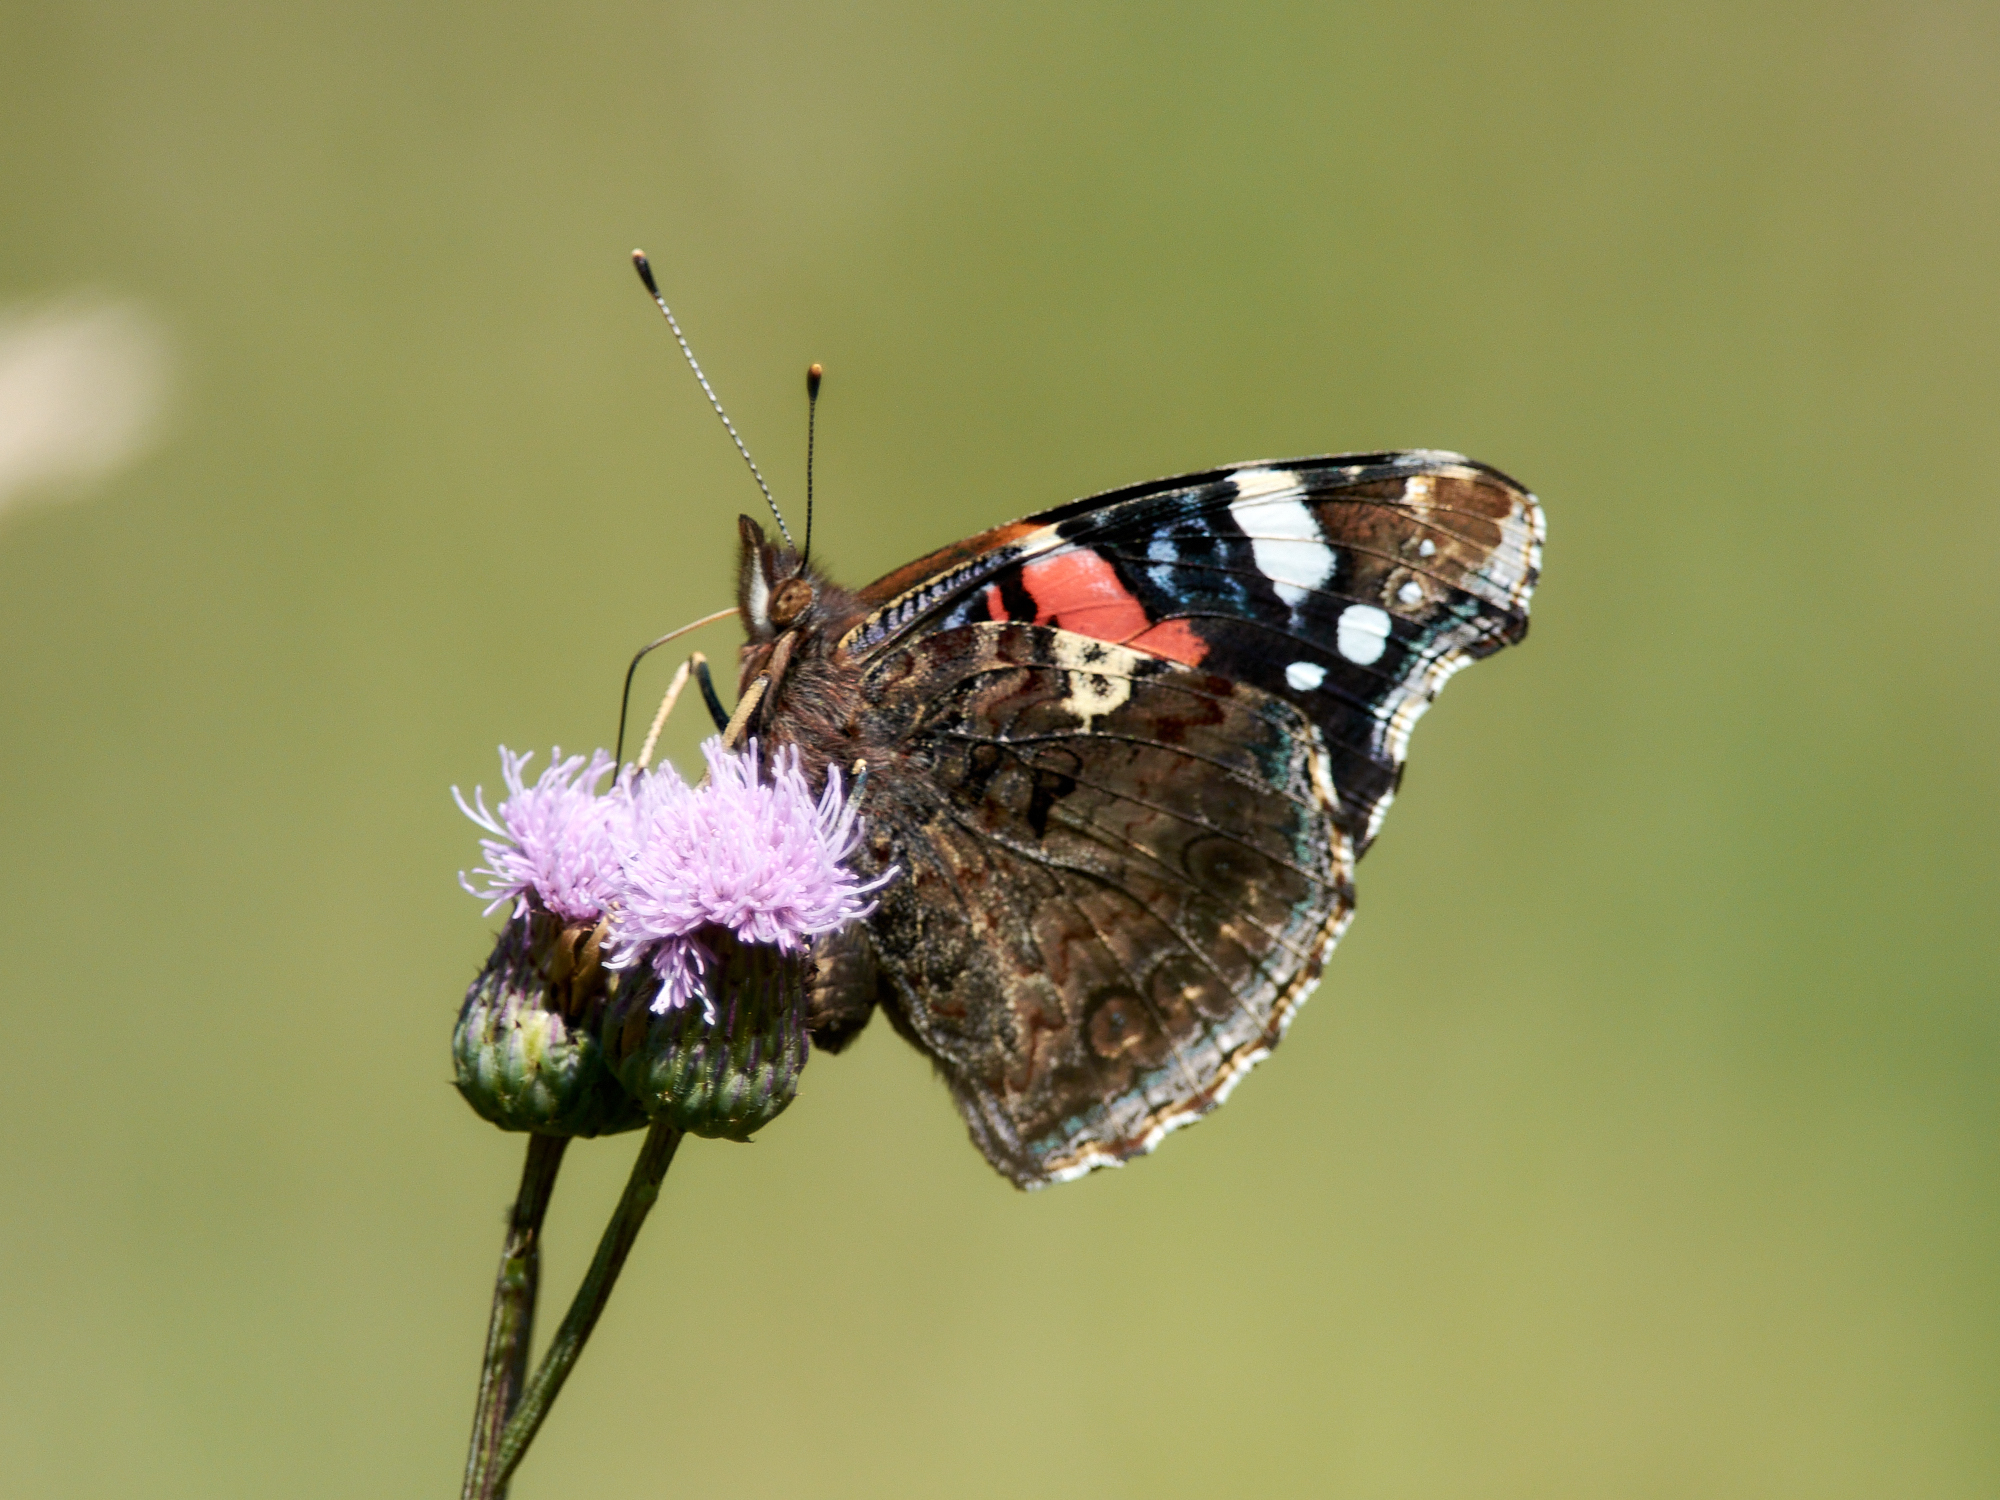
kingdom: Animalia
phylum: Arthropoda
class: Insecta
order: Lepidoptera
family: Nymphalidae
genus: Vanessa
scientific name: Vanessa atalanta
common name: Red admiral
